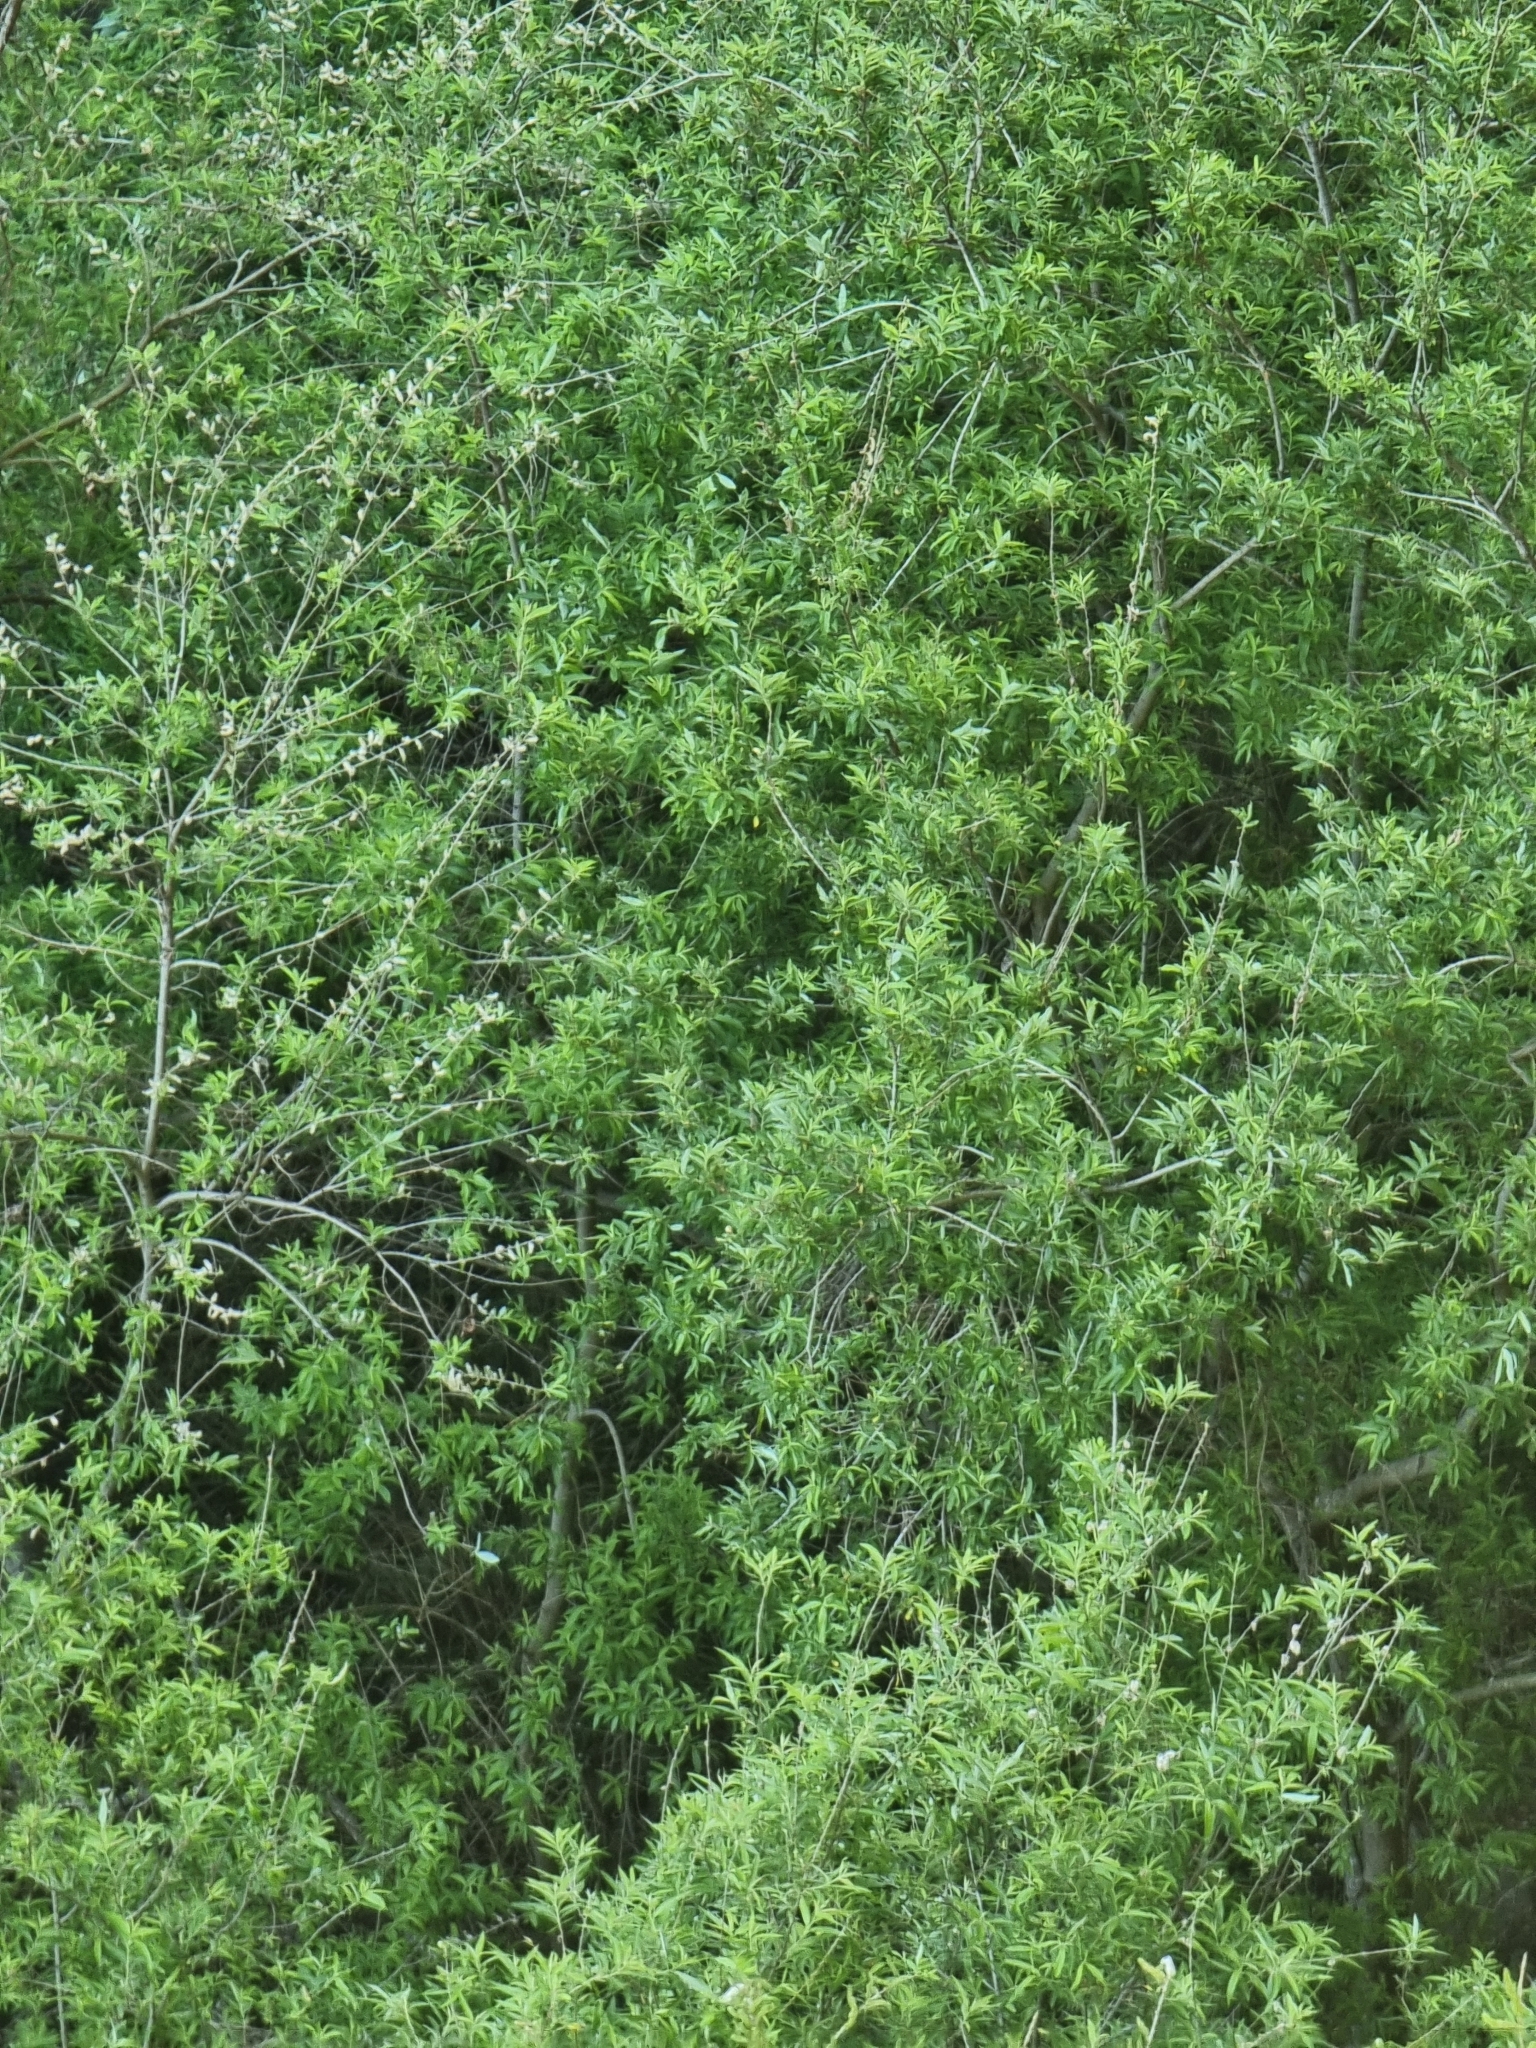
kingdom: Plantae
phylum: Tracheophyta
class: Magnoliopsida
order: Malpighiales
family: Salicaceae
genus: Salix
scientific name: Salix canariensis
